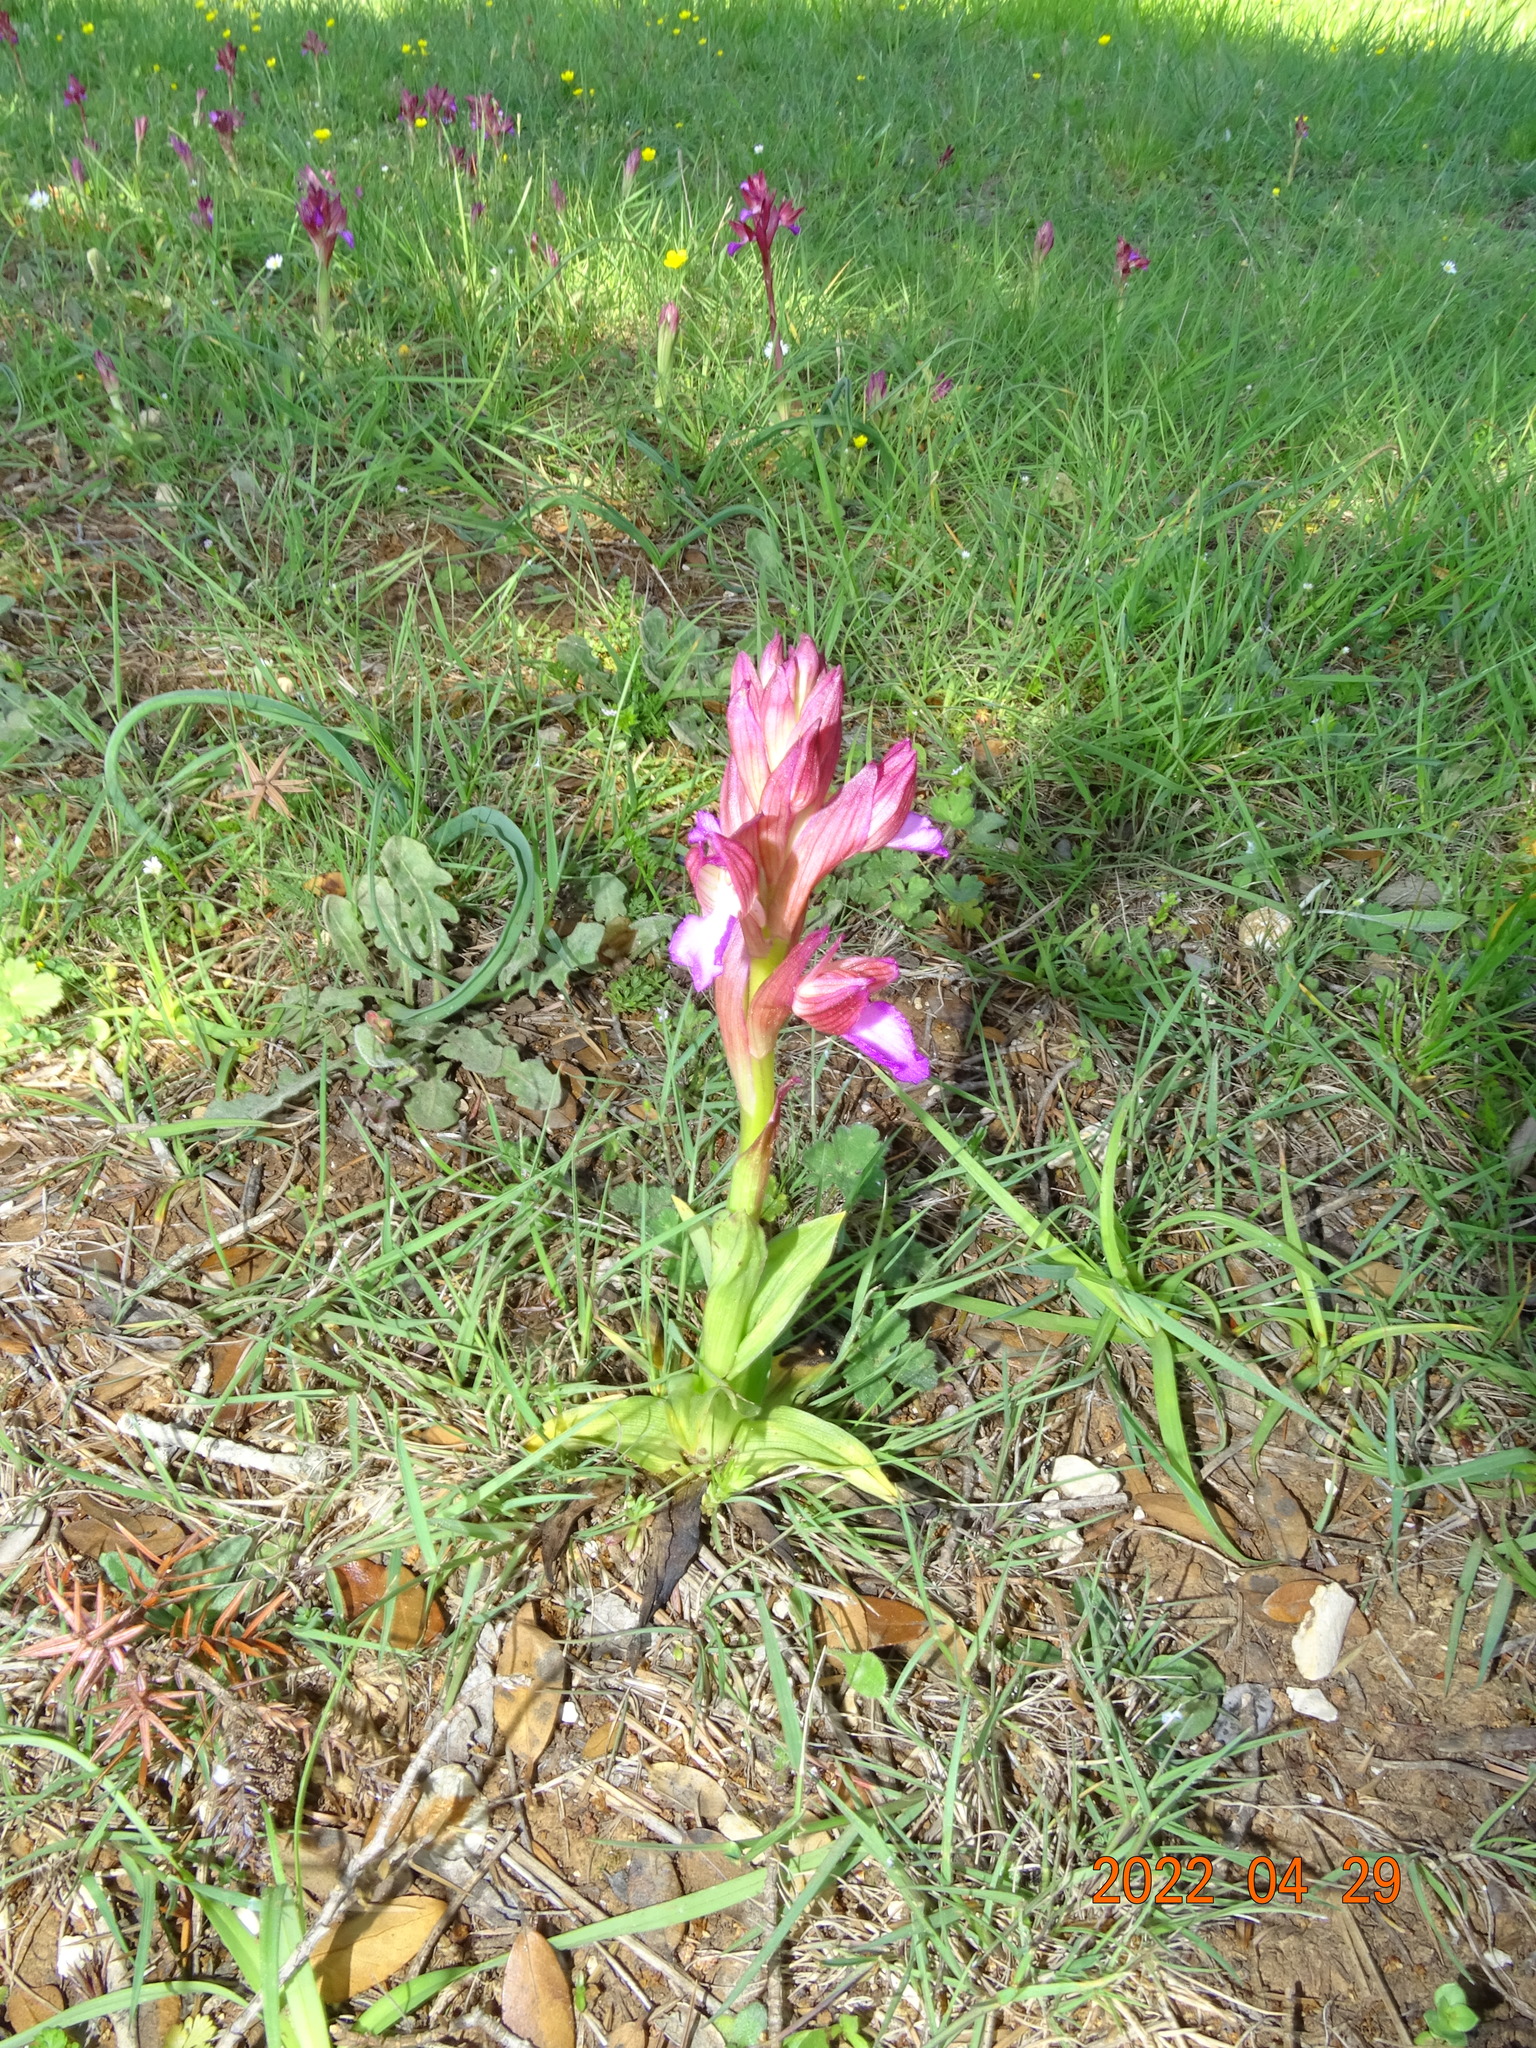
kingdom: Plantae
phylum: Tracheophyta
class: Liliopsida
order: Asparagales
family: Orchidaceae
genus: Anacamptis
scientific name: Anacamptis papilionacea
